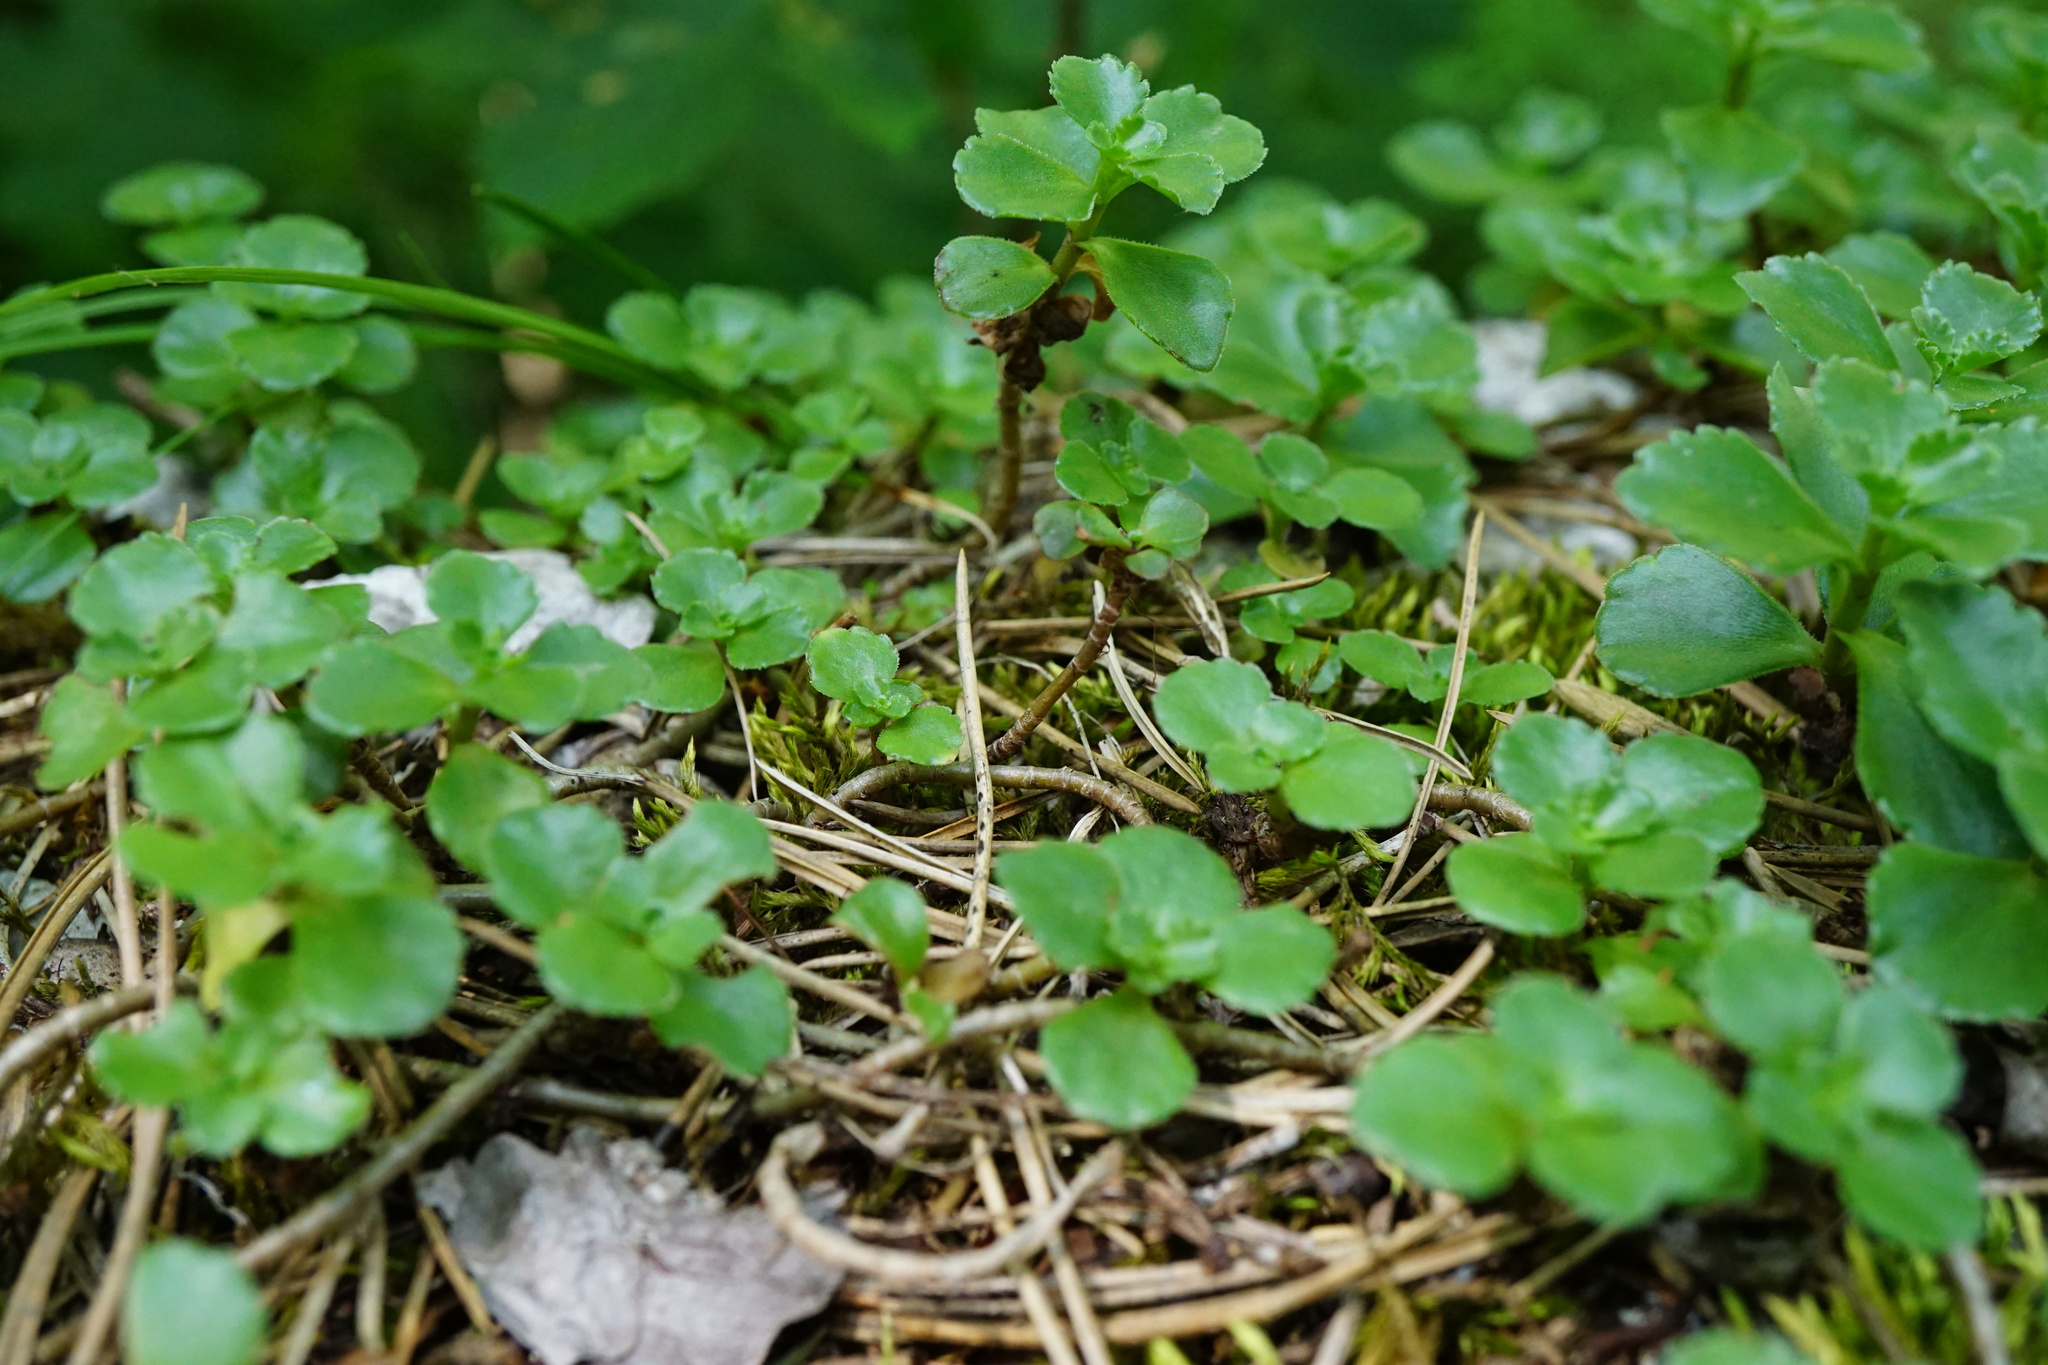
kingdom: Plantae
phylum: Tracheophyta
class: Magnoliopsida
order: Saxifragales
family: Crassulaceae
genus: Phedimus
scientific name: Phedimus spurius
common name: Caucasian stonecrop
